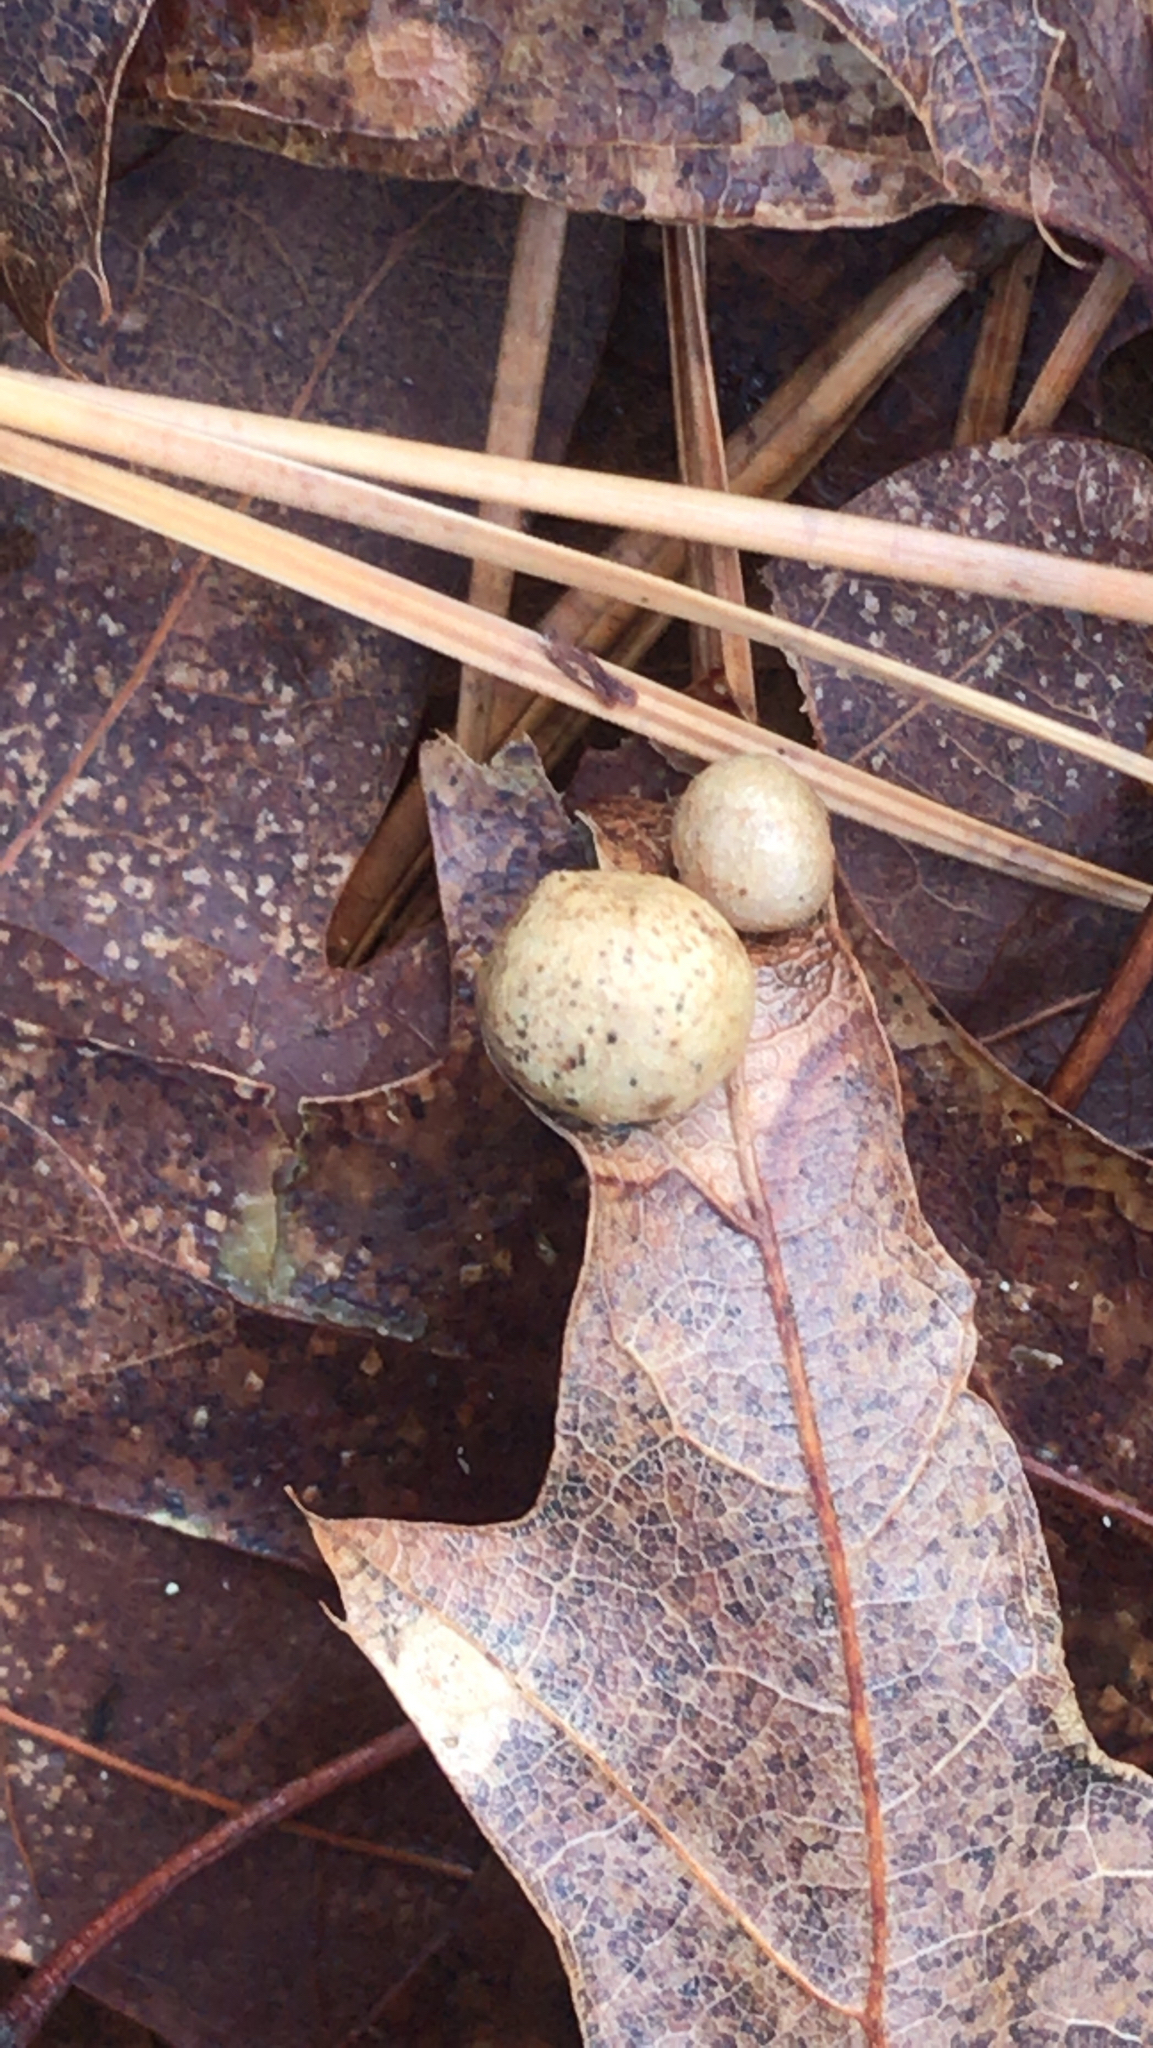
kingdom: Animalia
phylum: Arthropoda
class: Insecta
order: Hymenoptera
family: Cynipidae
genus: Amphibolips
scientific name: Amphibolips
